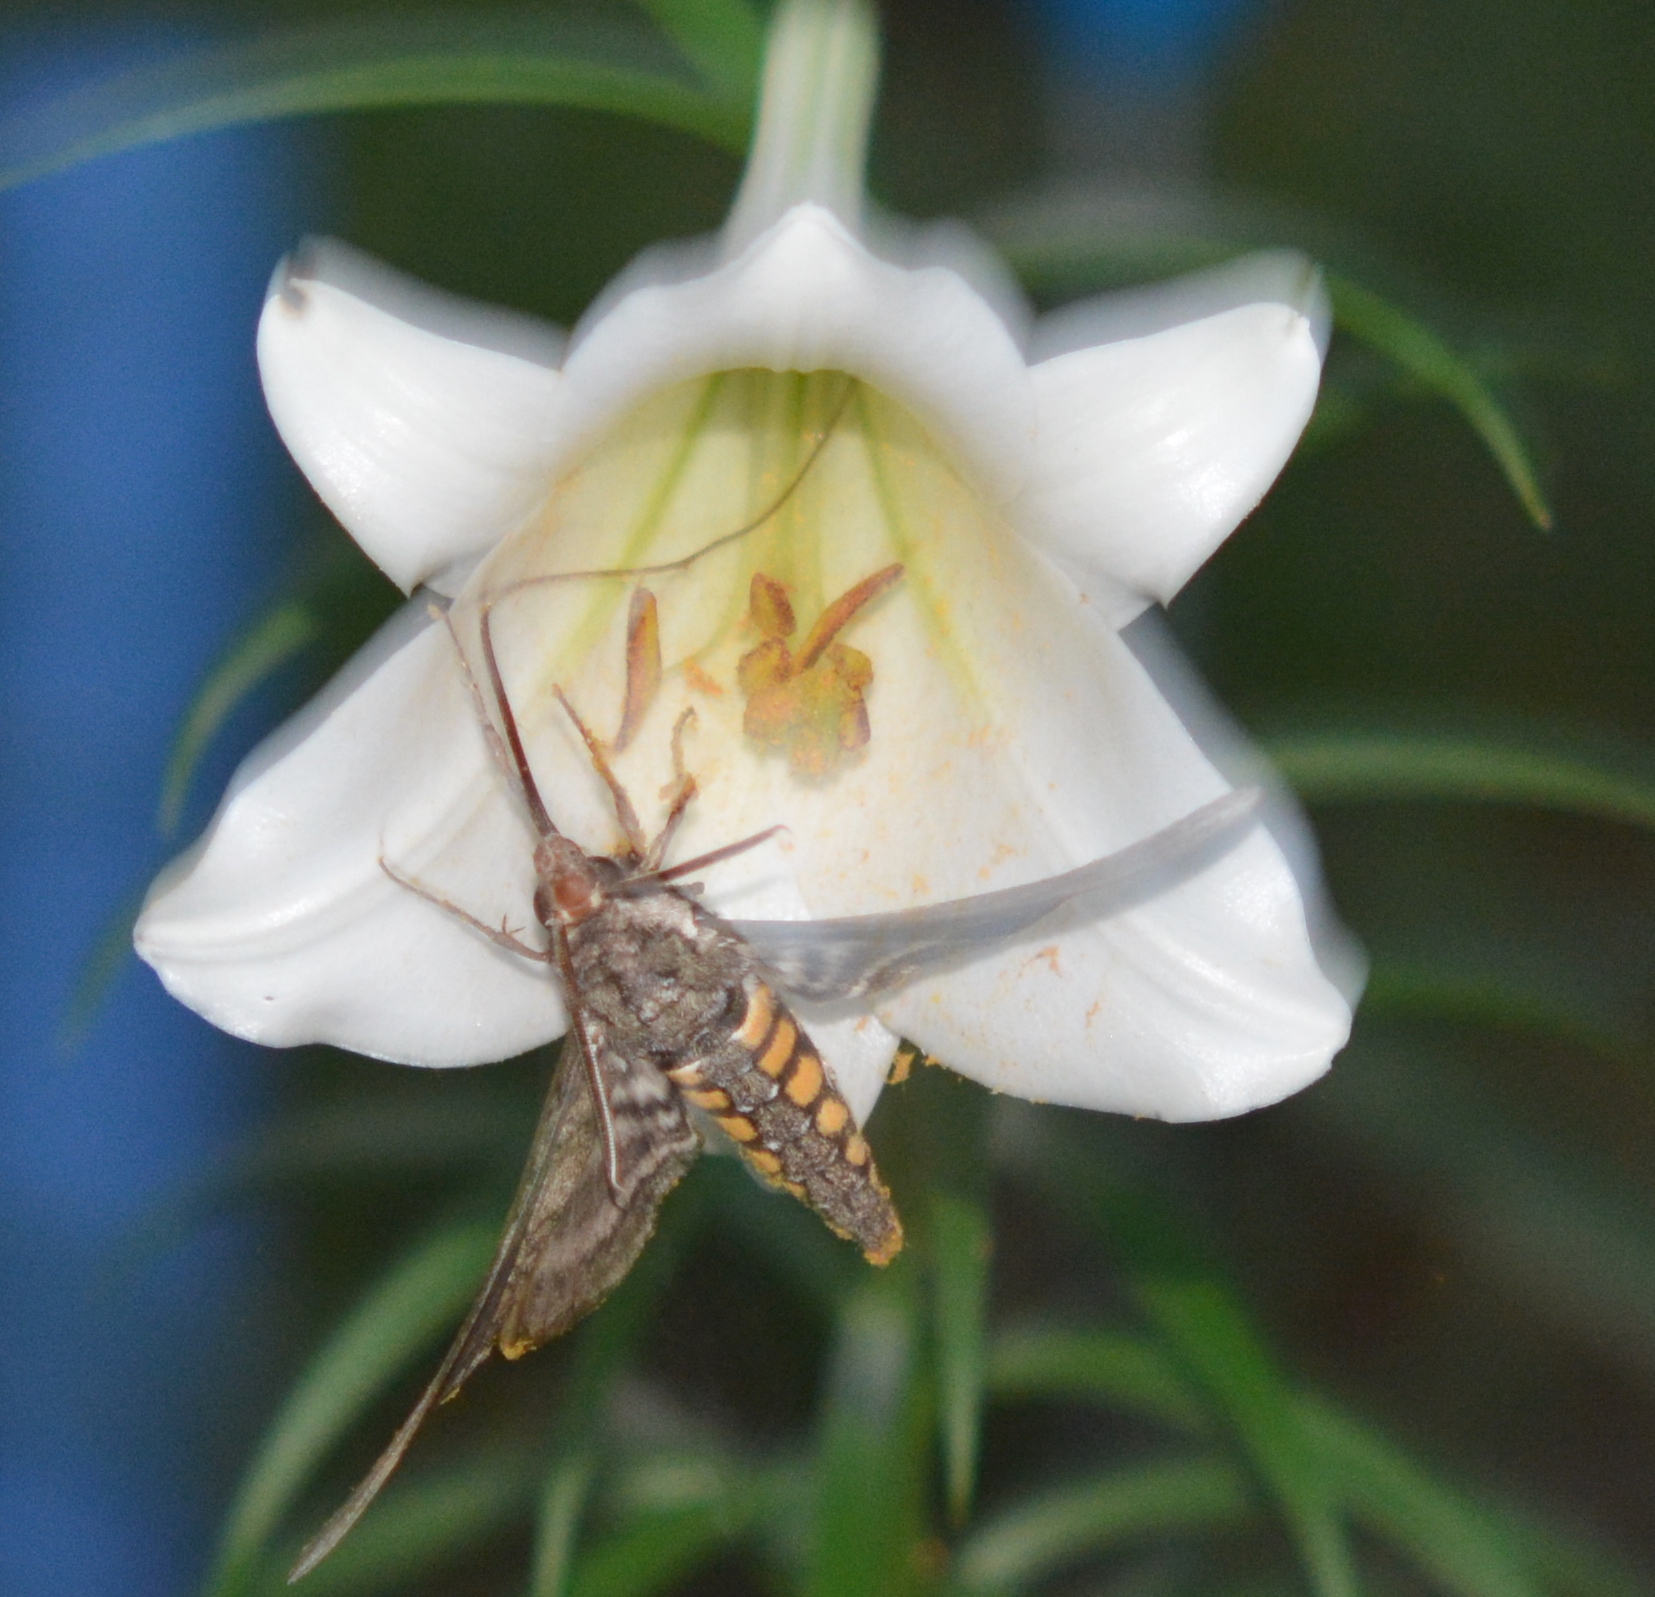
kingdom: Animalia
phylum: Arthropoda
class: Insecta
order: Lepidoptera
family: Sphingidae
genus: Manduca
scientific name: Manduca sexta
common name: Carolina sphinx
